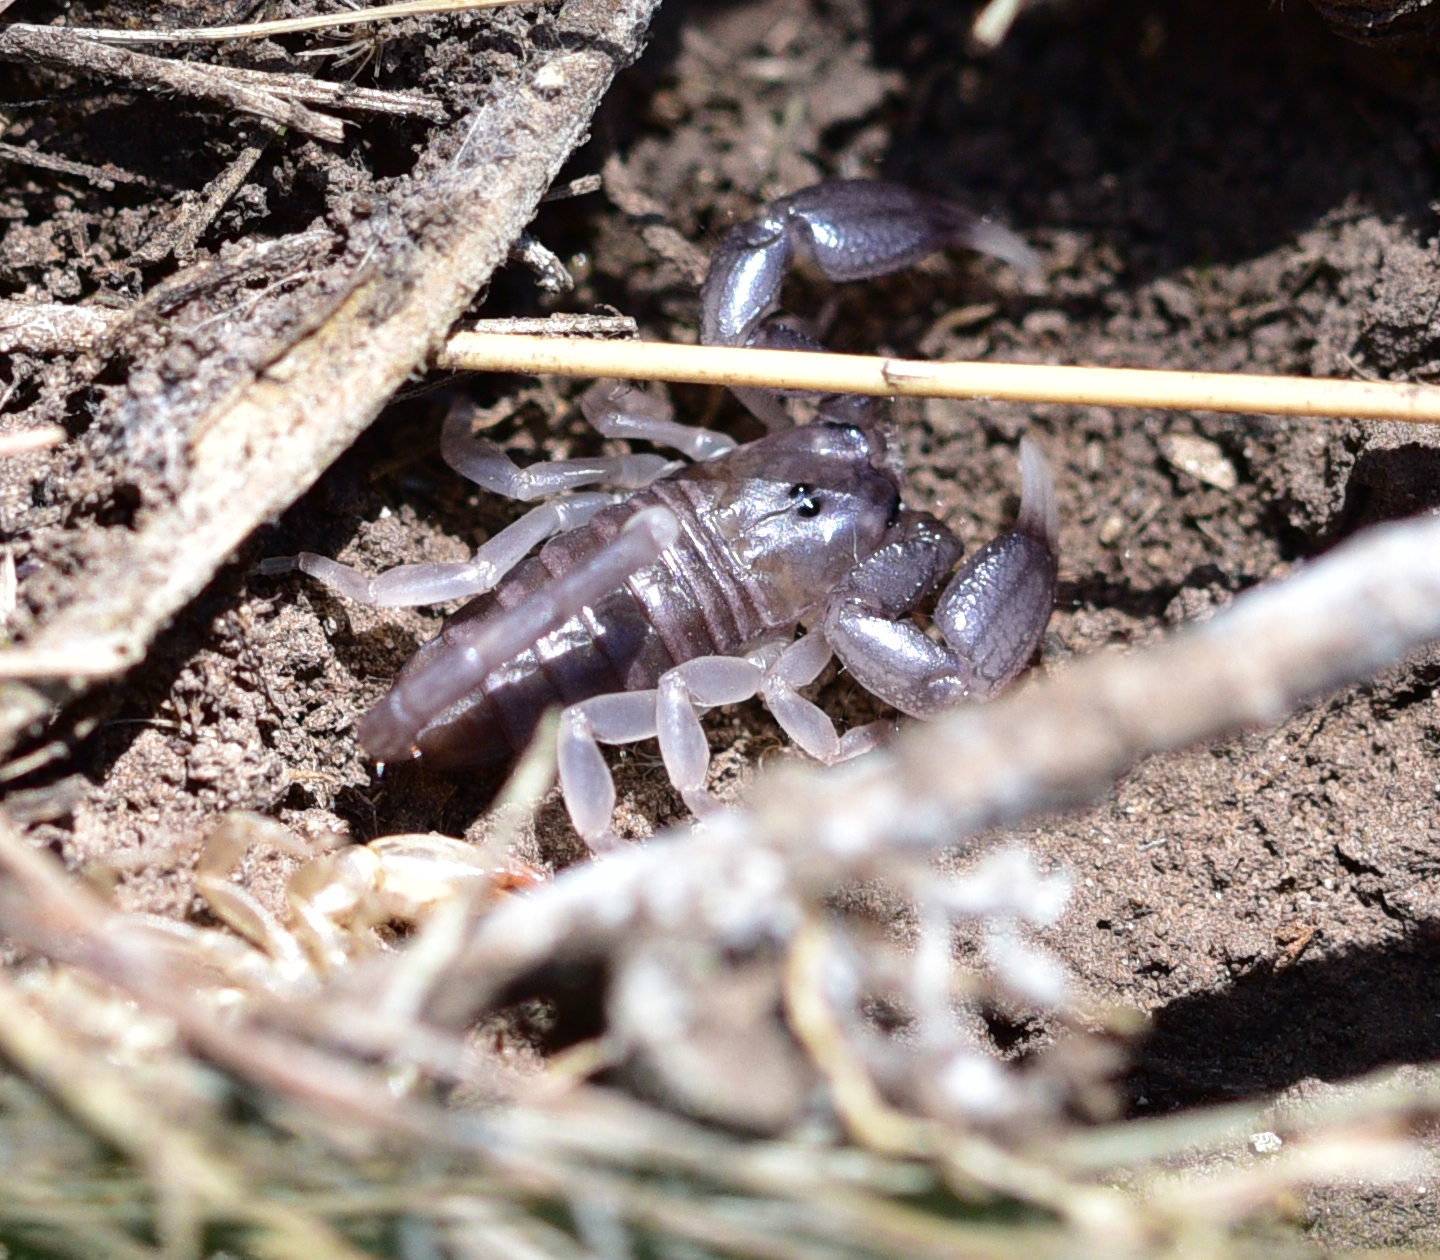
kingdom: Animalia
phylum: Arthropoda
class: Arachnida
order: Scorpiones
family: Hormuridae
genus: Opisthacanthus
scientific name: Opisthacanthus validus
